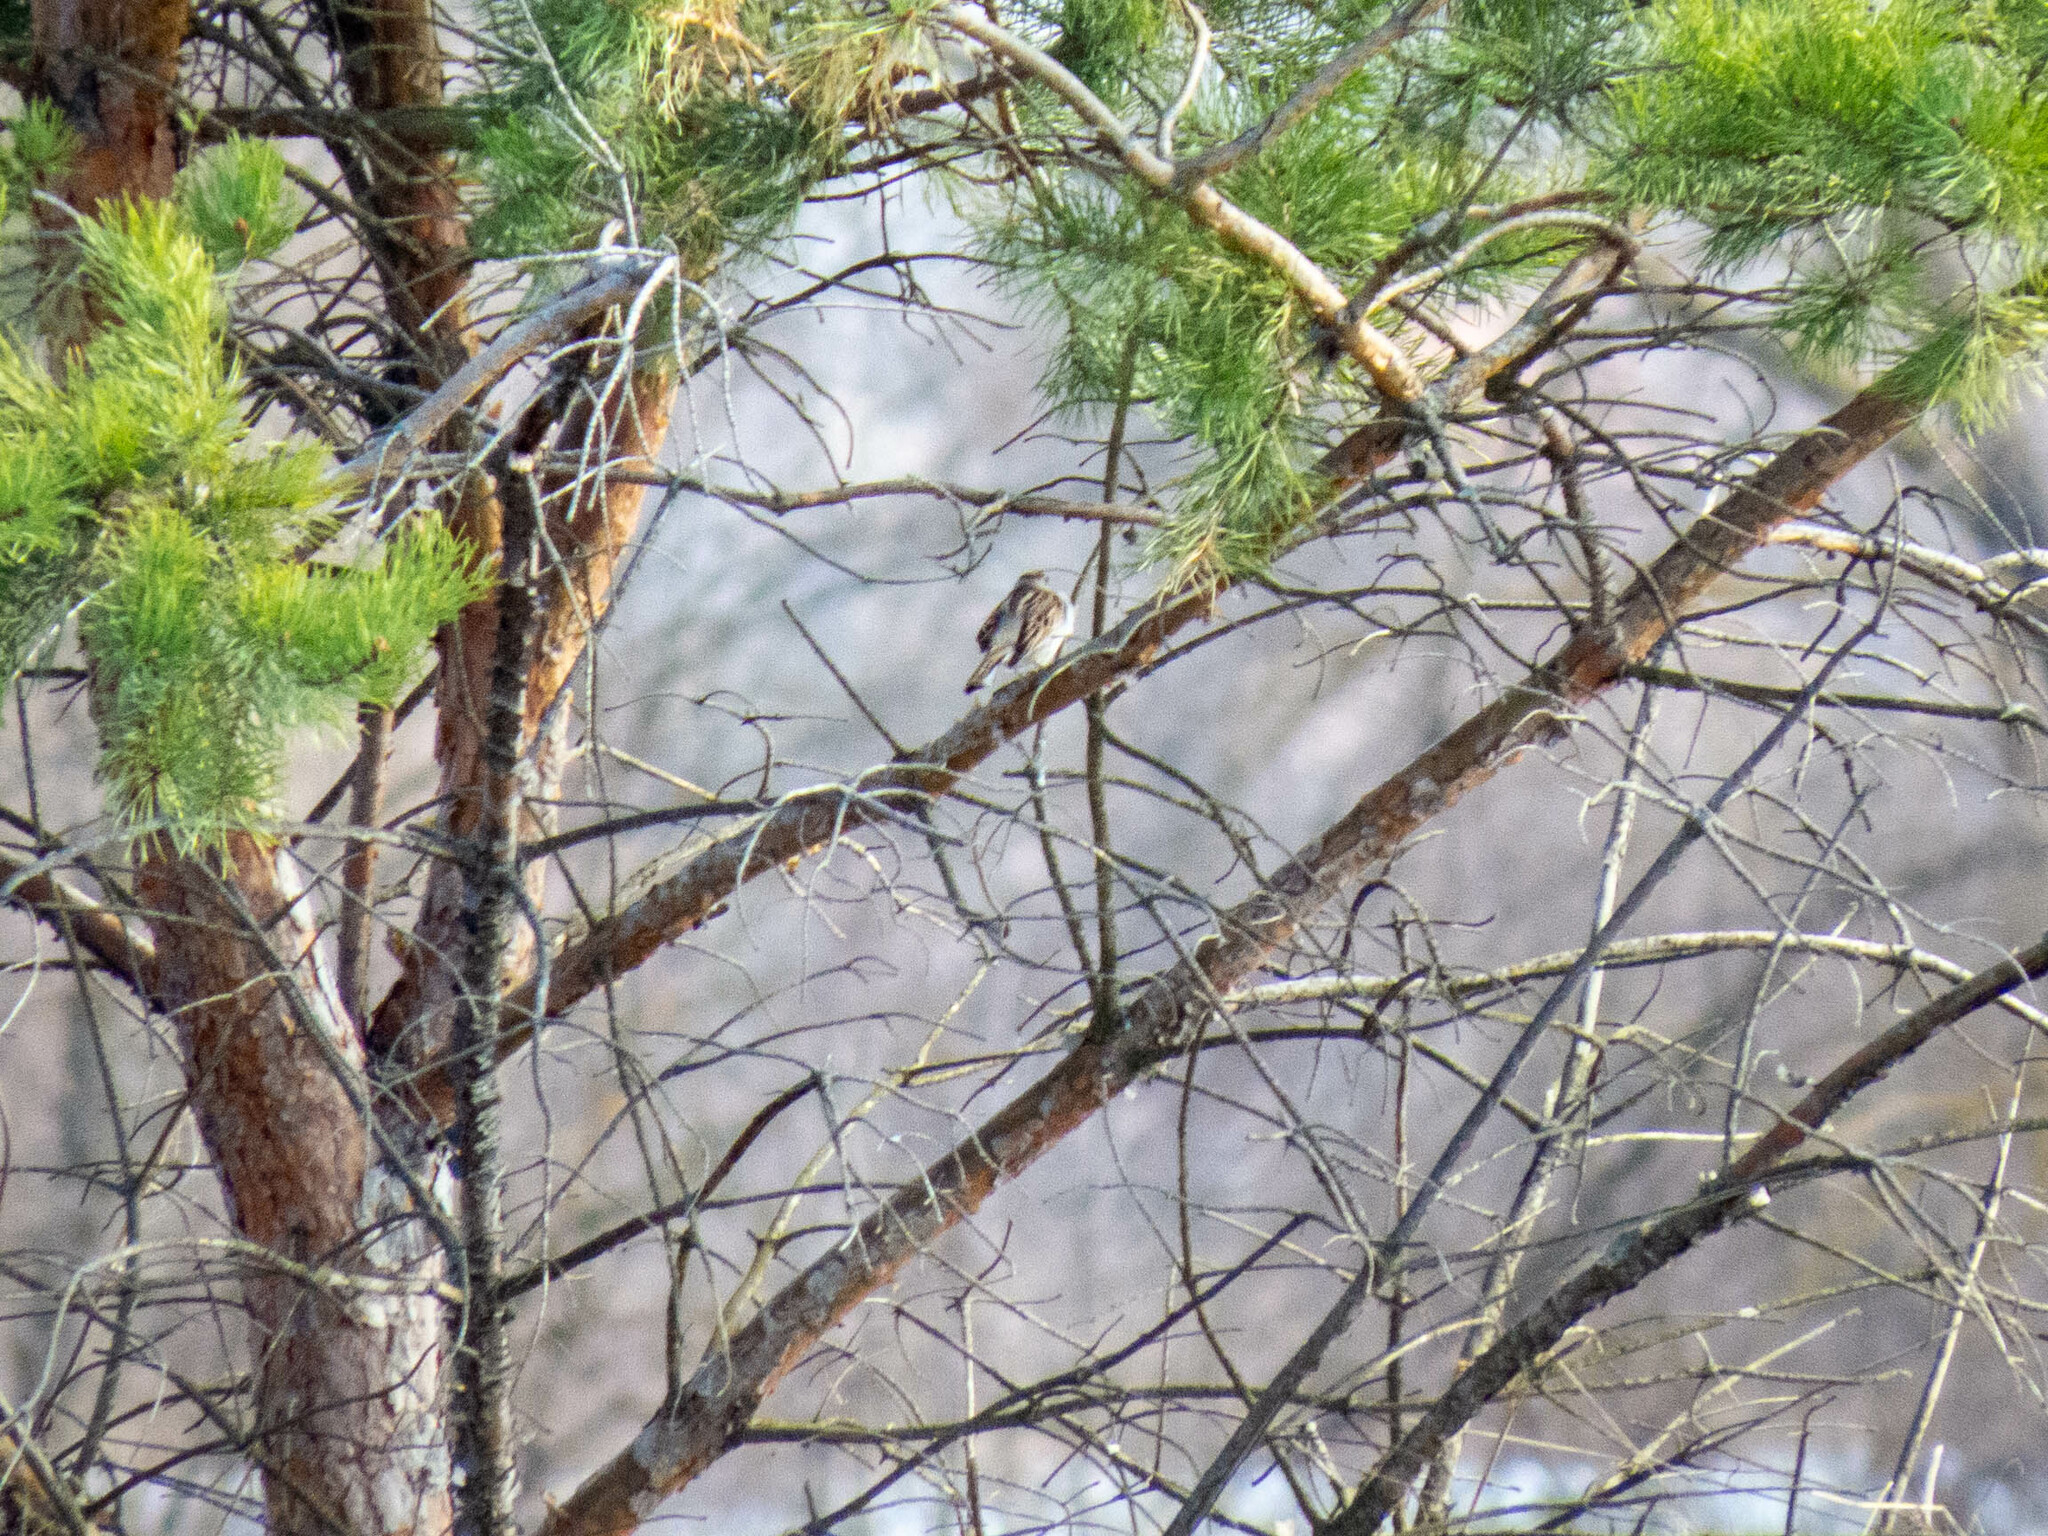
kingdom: Animalia
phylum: Chordata
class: Aves
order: Passeriformes
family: Emberizidae
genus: Emberiza
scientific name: Emberiza schoeniclus
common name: Reed bunting
